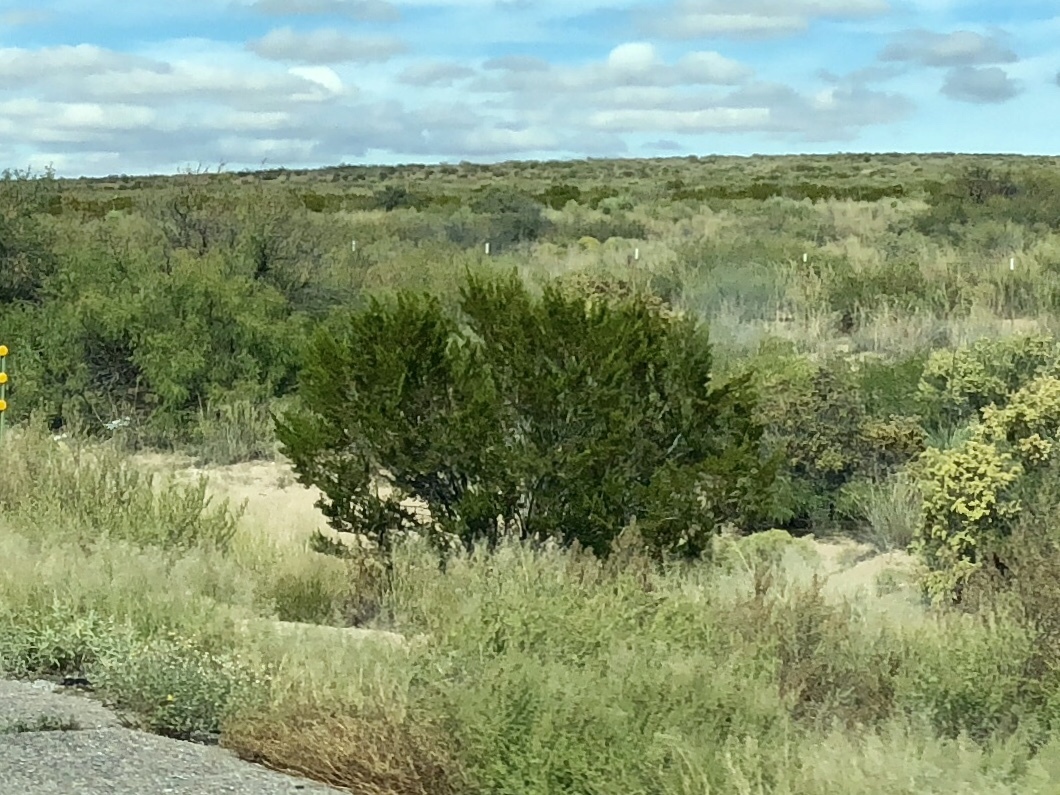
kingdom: Plantae
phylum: Tracheophyta
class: Magnoliopsida
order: Zygophyllales
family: Zygophyllaceae
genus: Larrea
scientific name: Larrea tridentata
